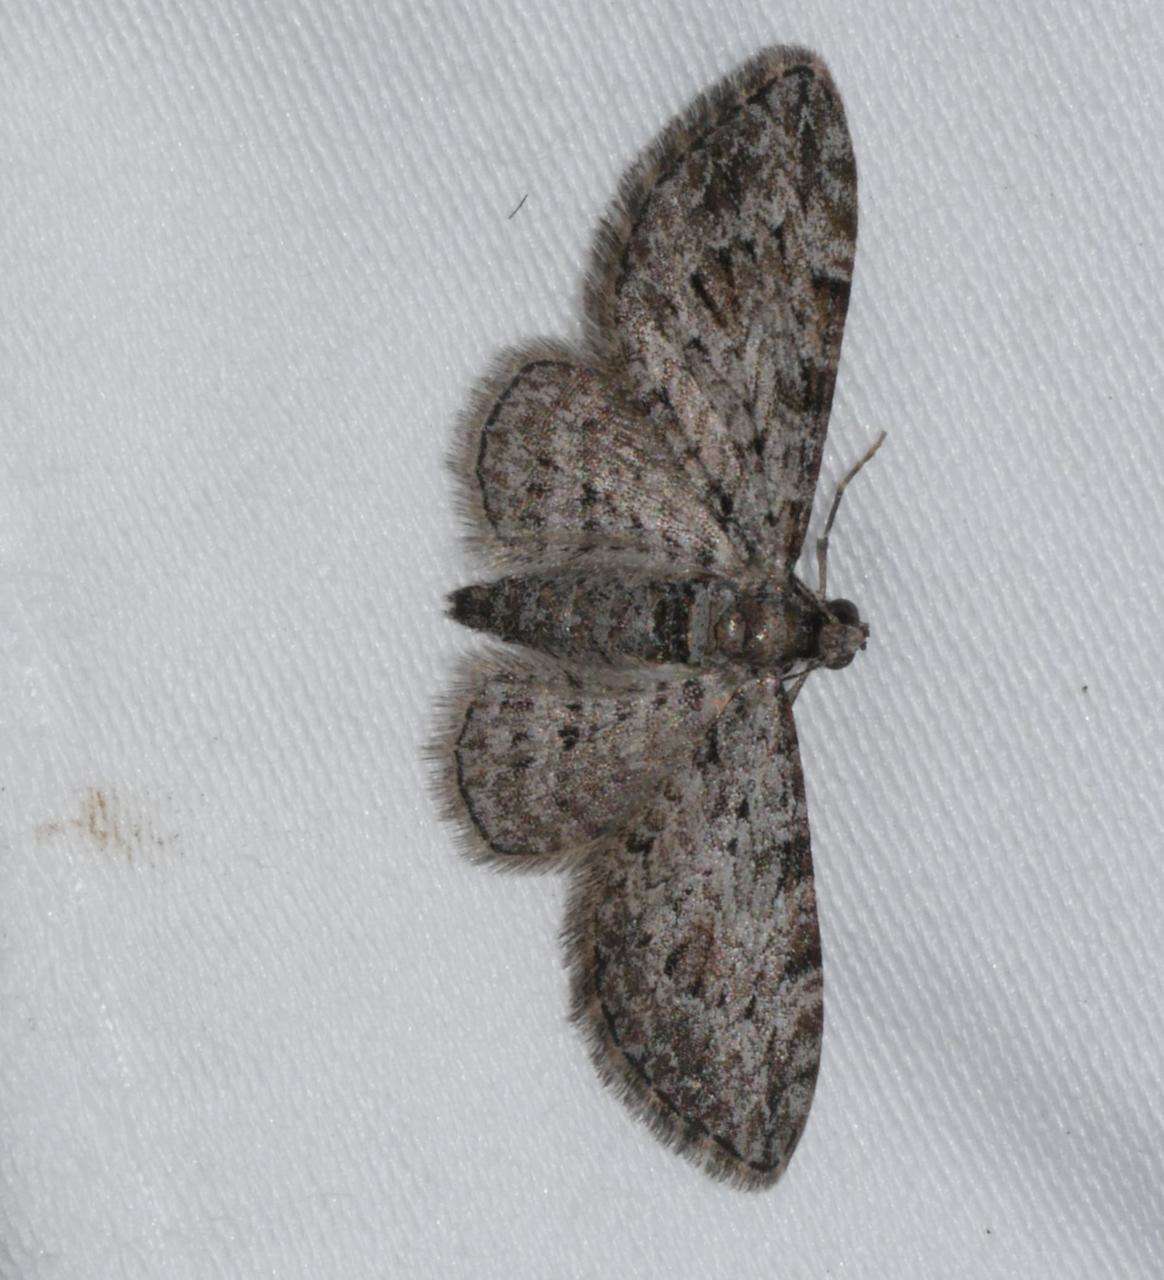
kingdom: Animalia
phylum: Arthropoda
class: Insecta
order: Lepidoptera
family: Geometridae
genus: Chloroclystis
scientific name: Chloroclystis insigillata
